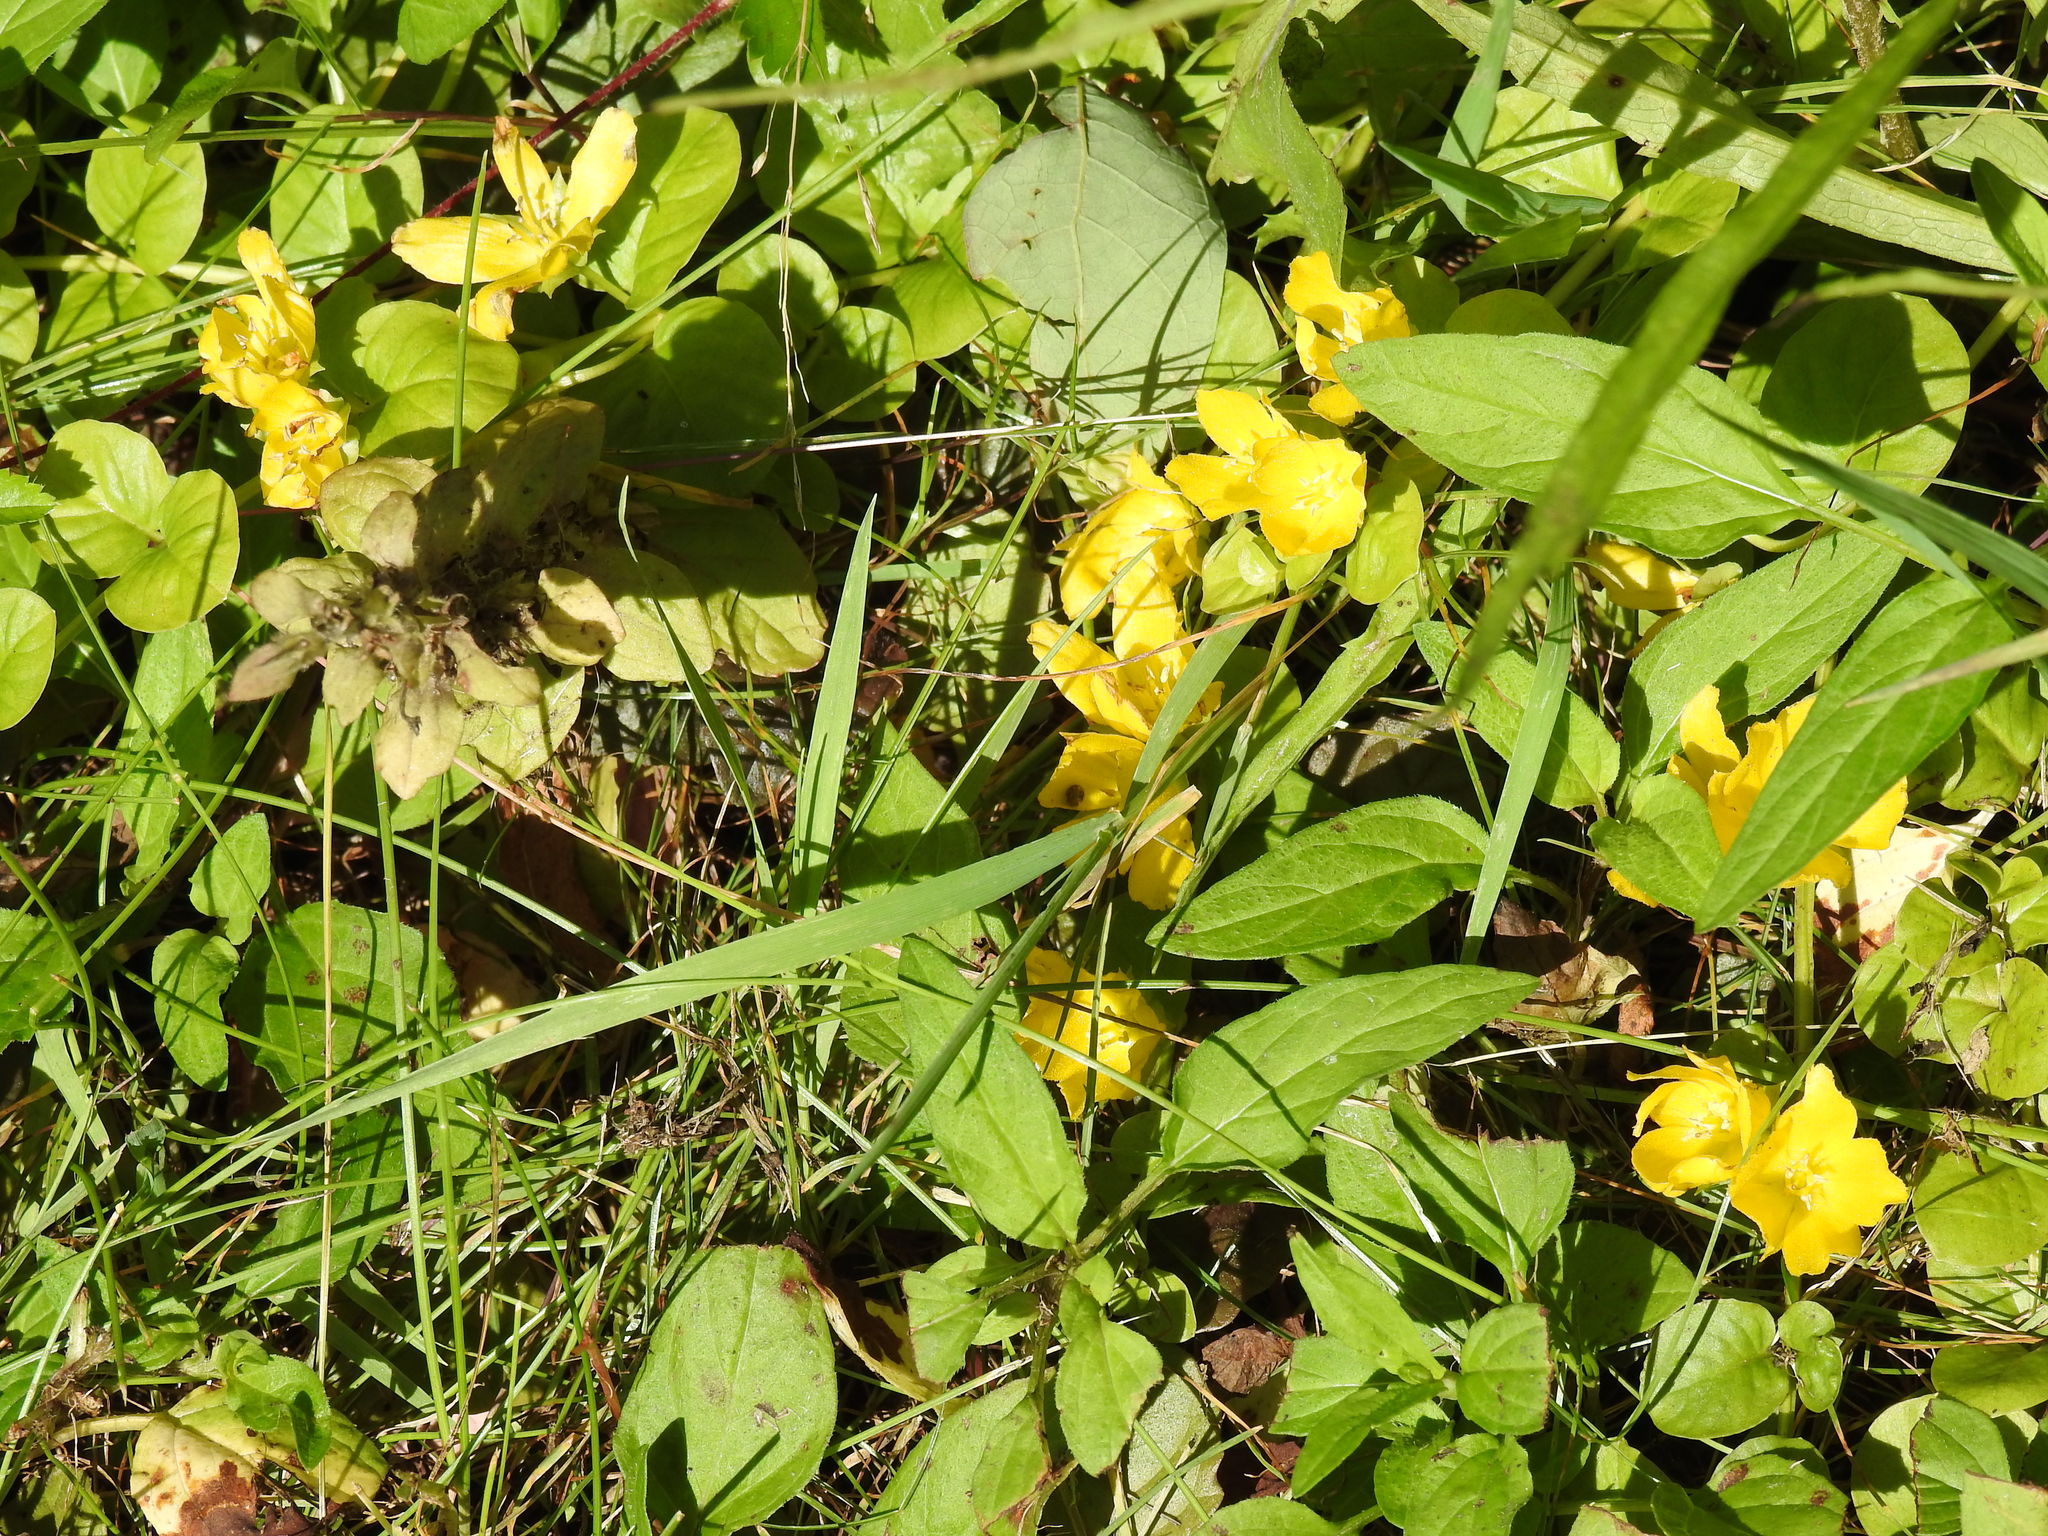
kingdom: Plantae
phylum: Tracheophyta
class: Magnoliopsida
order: Ericales
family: Primulaceae
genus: Lysimachia
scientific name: Lysimachia nummularia
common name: Moneywort
